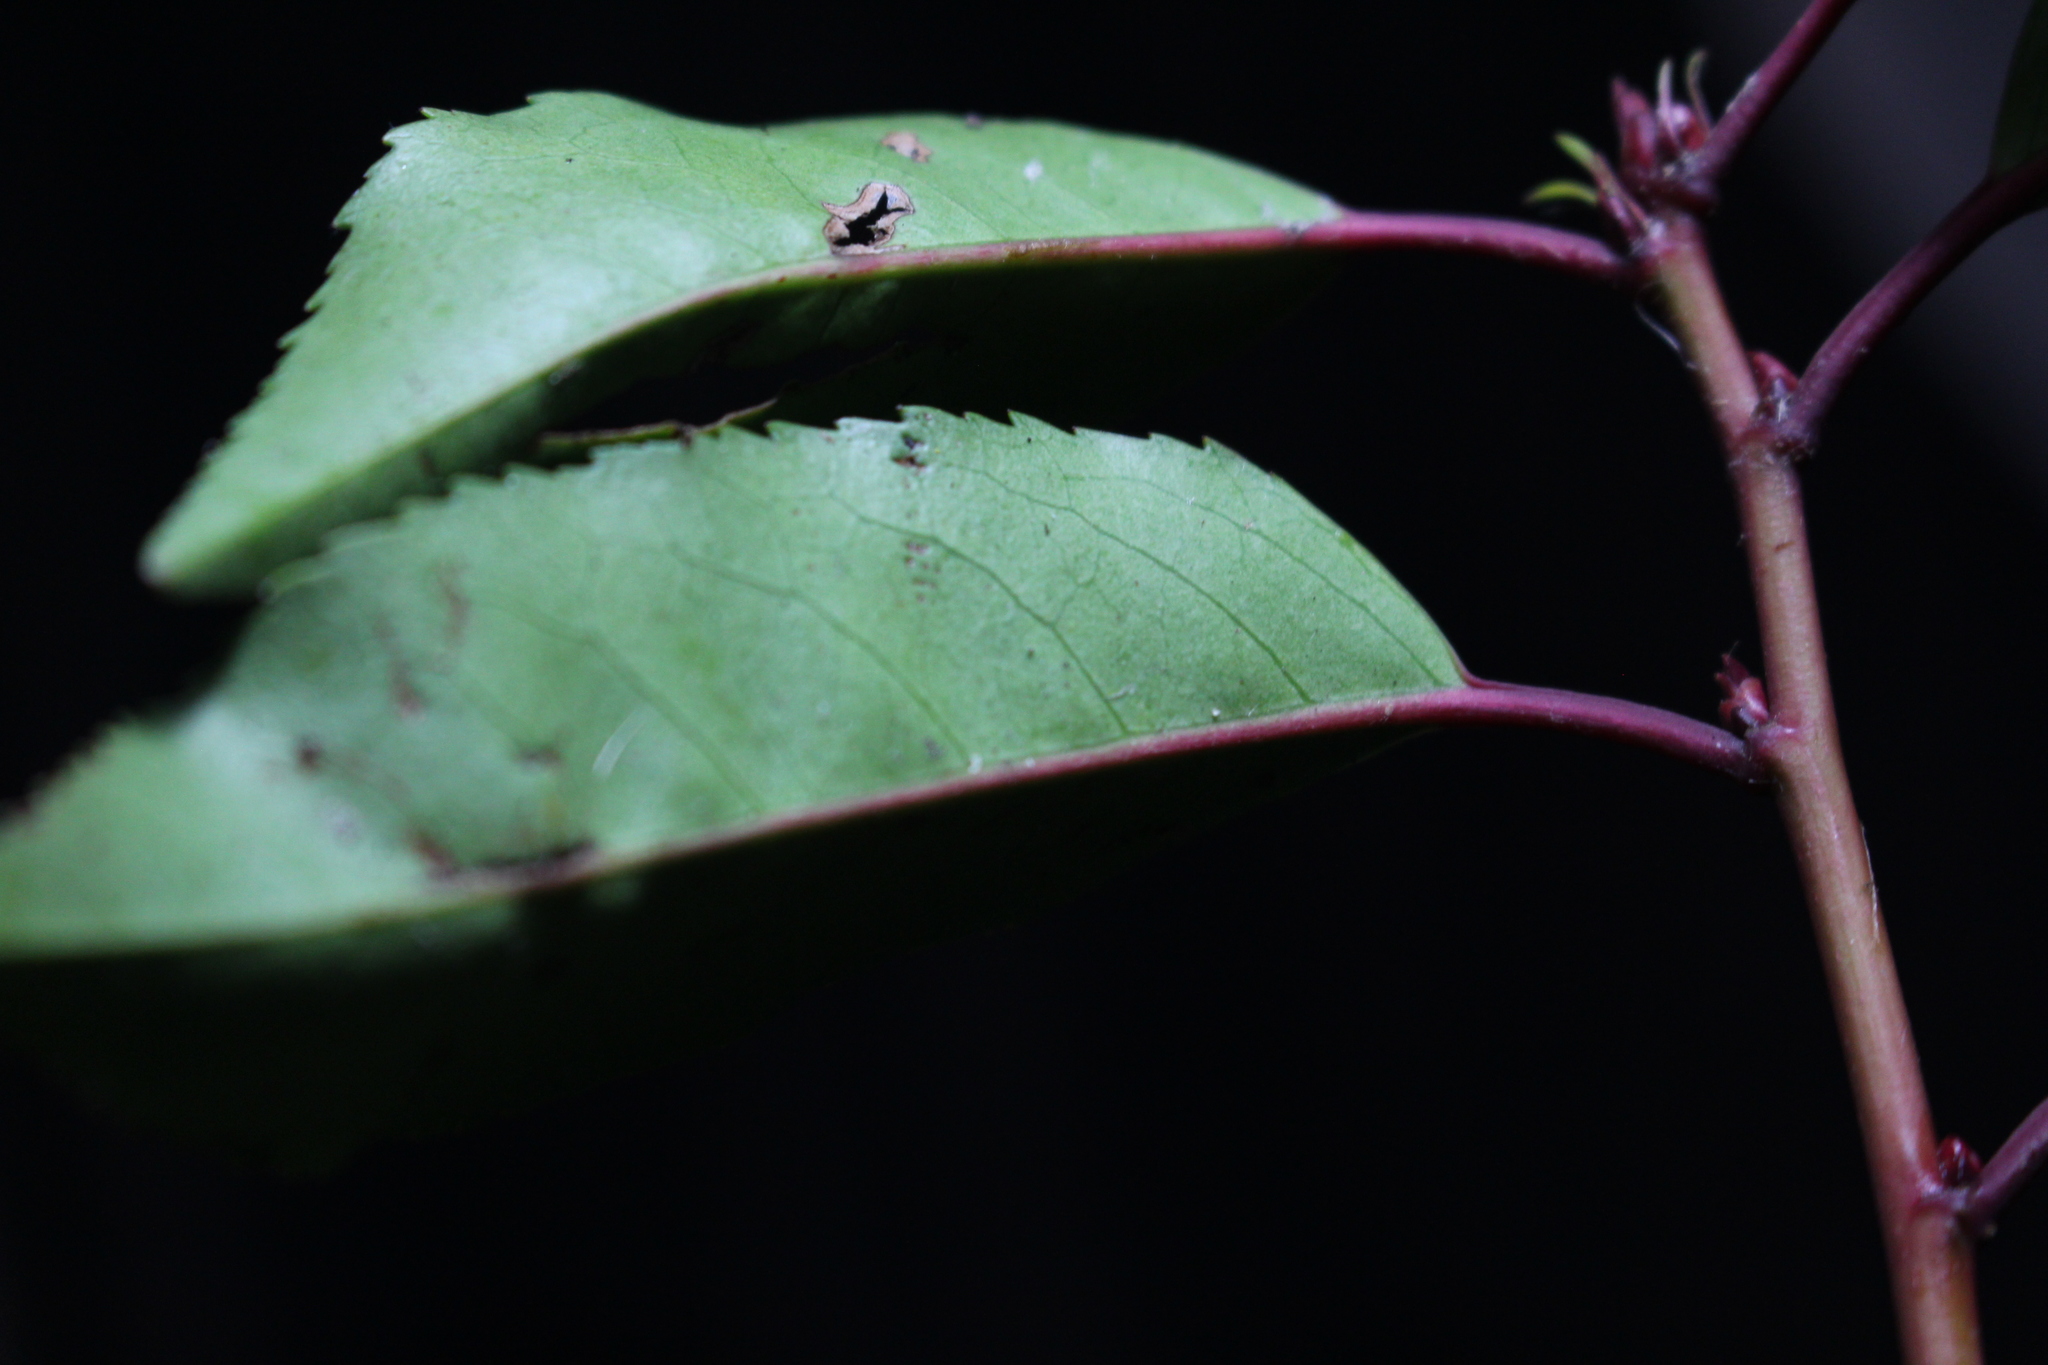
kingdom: Plantae
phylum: Tracheophyta
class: Magnoliopsida
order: Rosales
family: Rosaceae
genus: Prunus
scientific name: Prunus lusitanica
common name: Portugal laurel
